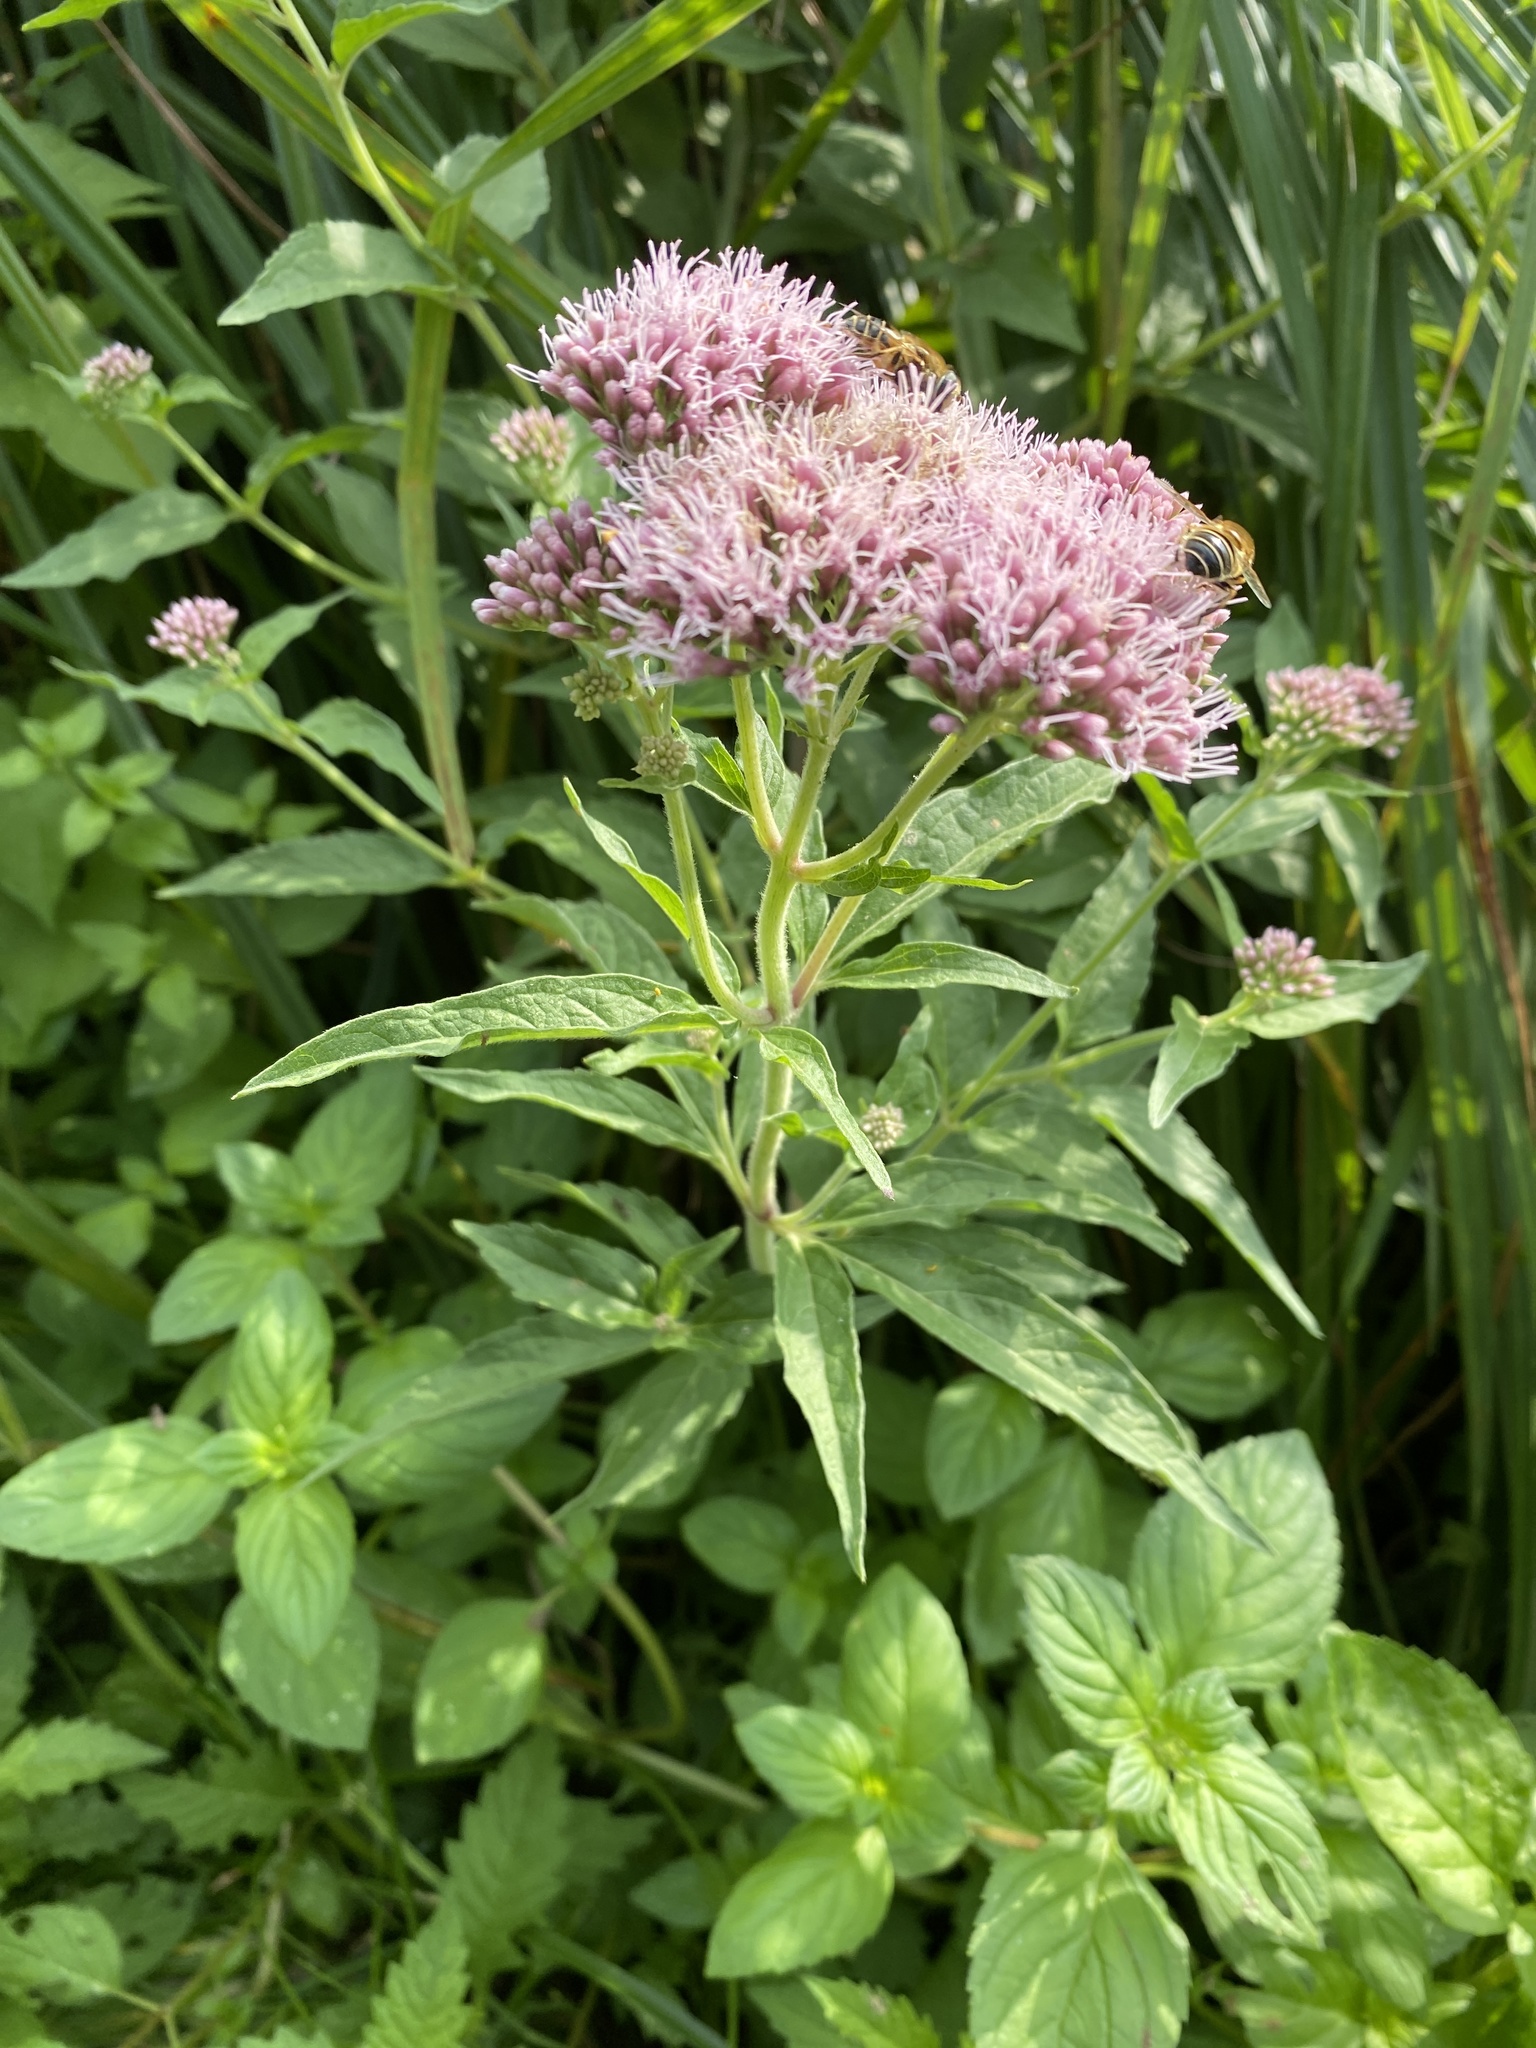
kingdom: Plantae
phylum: Tracheophyta
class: Magnoliopsida
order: Asterales
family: Asteraceae
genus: Eupatorium
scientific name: Eupatorium cannabinum
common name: Hemp-agrimony
